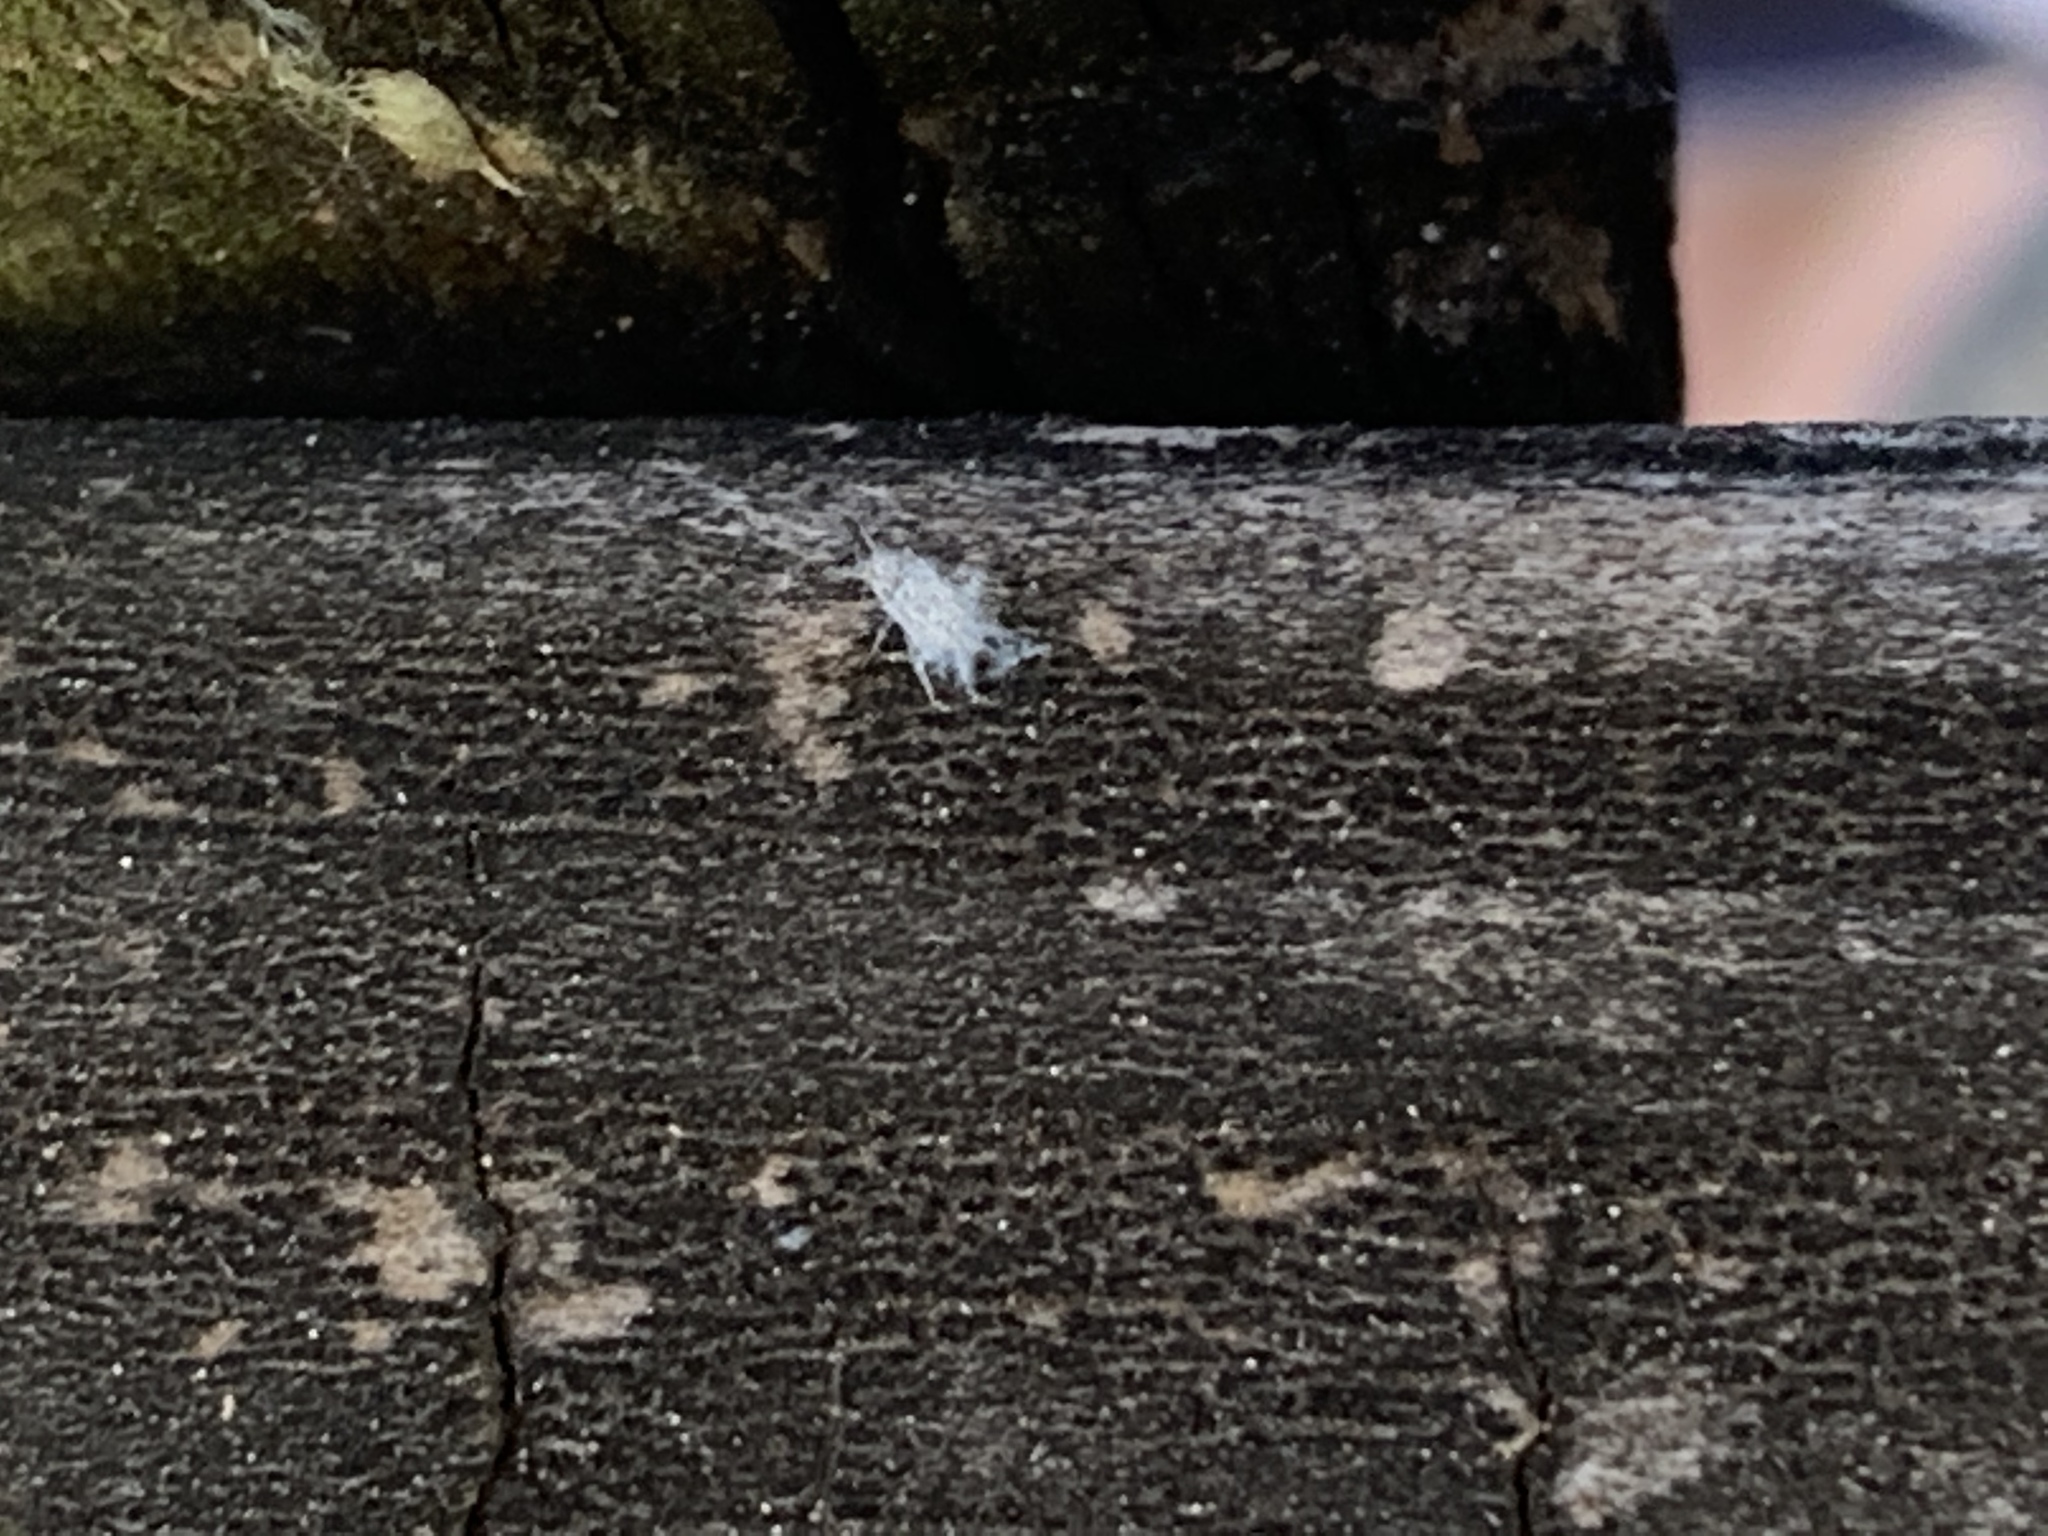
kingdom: Animalia
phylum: Arthropoda
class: Insecta
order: Hemiptera
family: Aphididae
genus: Shivaphis
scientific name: Shivaphis celti
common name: Asian wooly hackberry aphid
